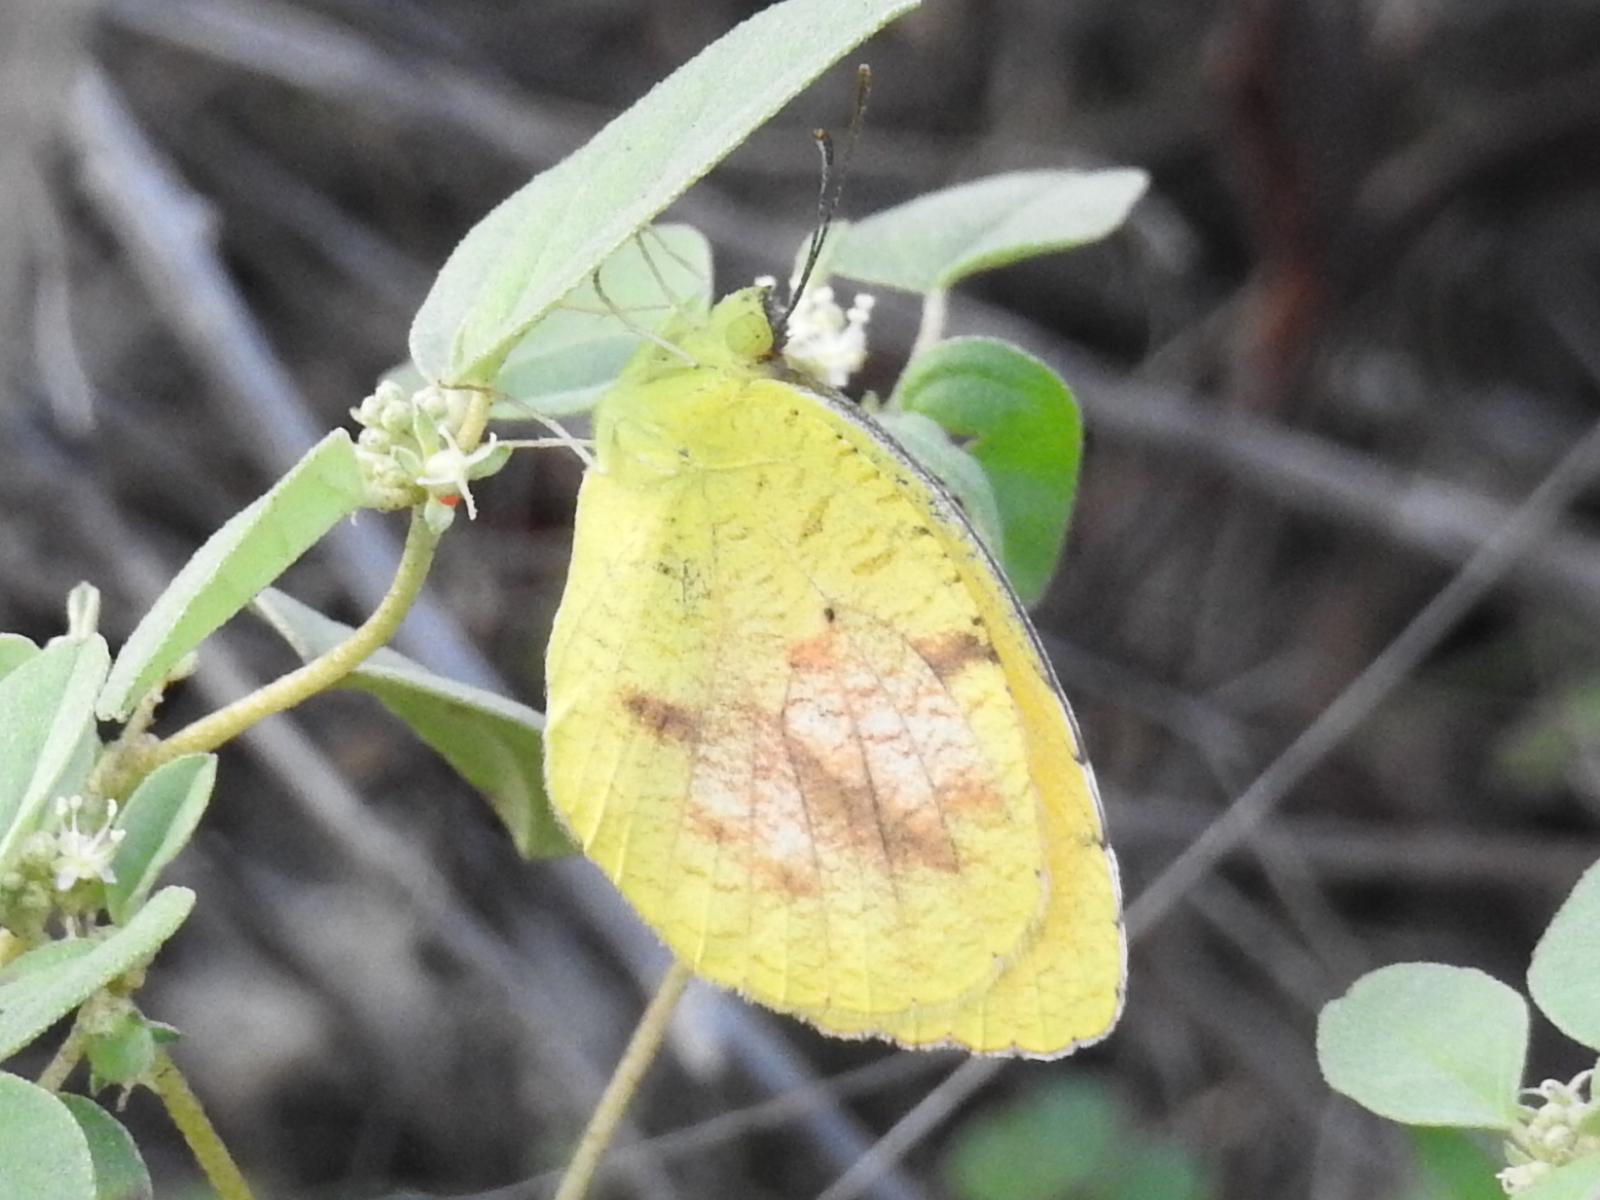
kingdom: Animalia
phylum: Arthropoda
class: Insecta
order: Lepidoptera
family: Pieridae
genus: Abaeis
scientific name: Abaeis nicippe
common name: Sleepy orange
